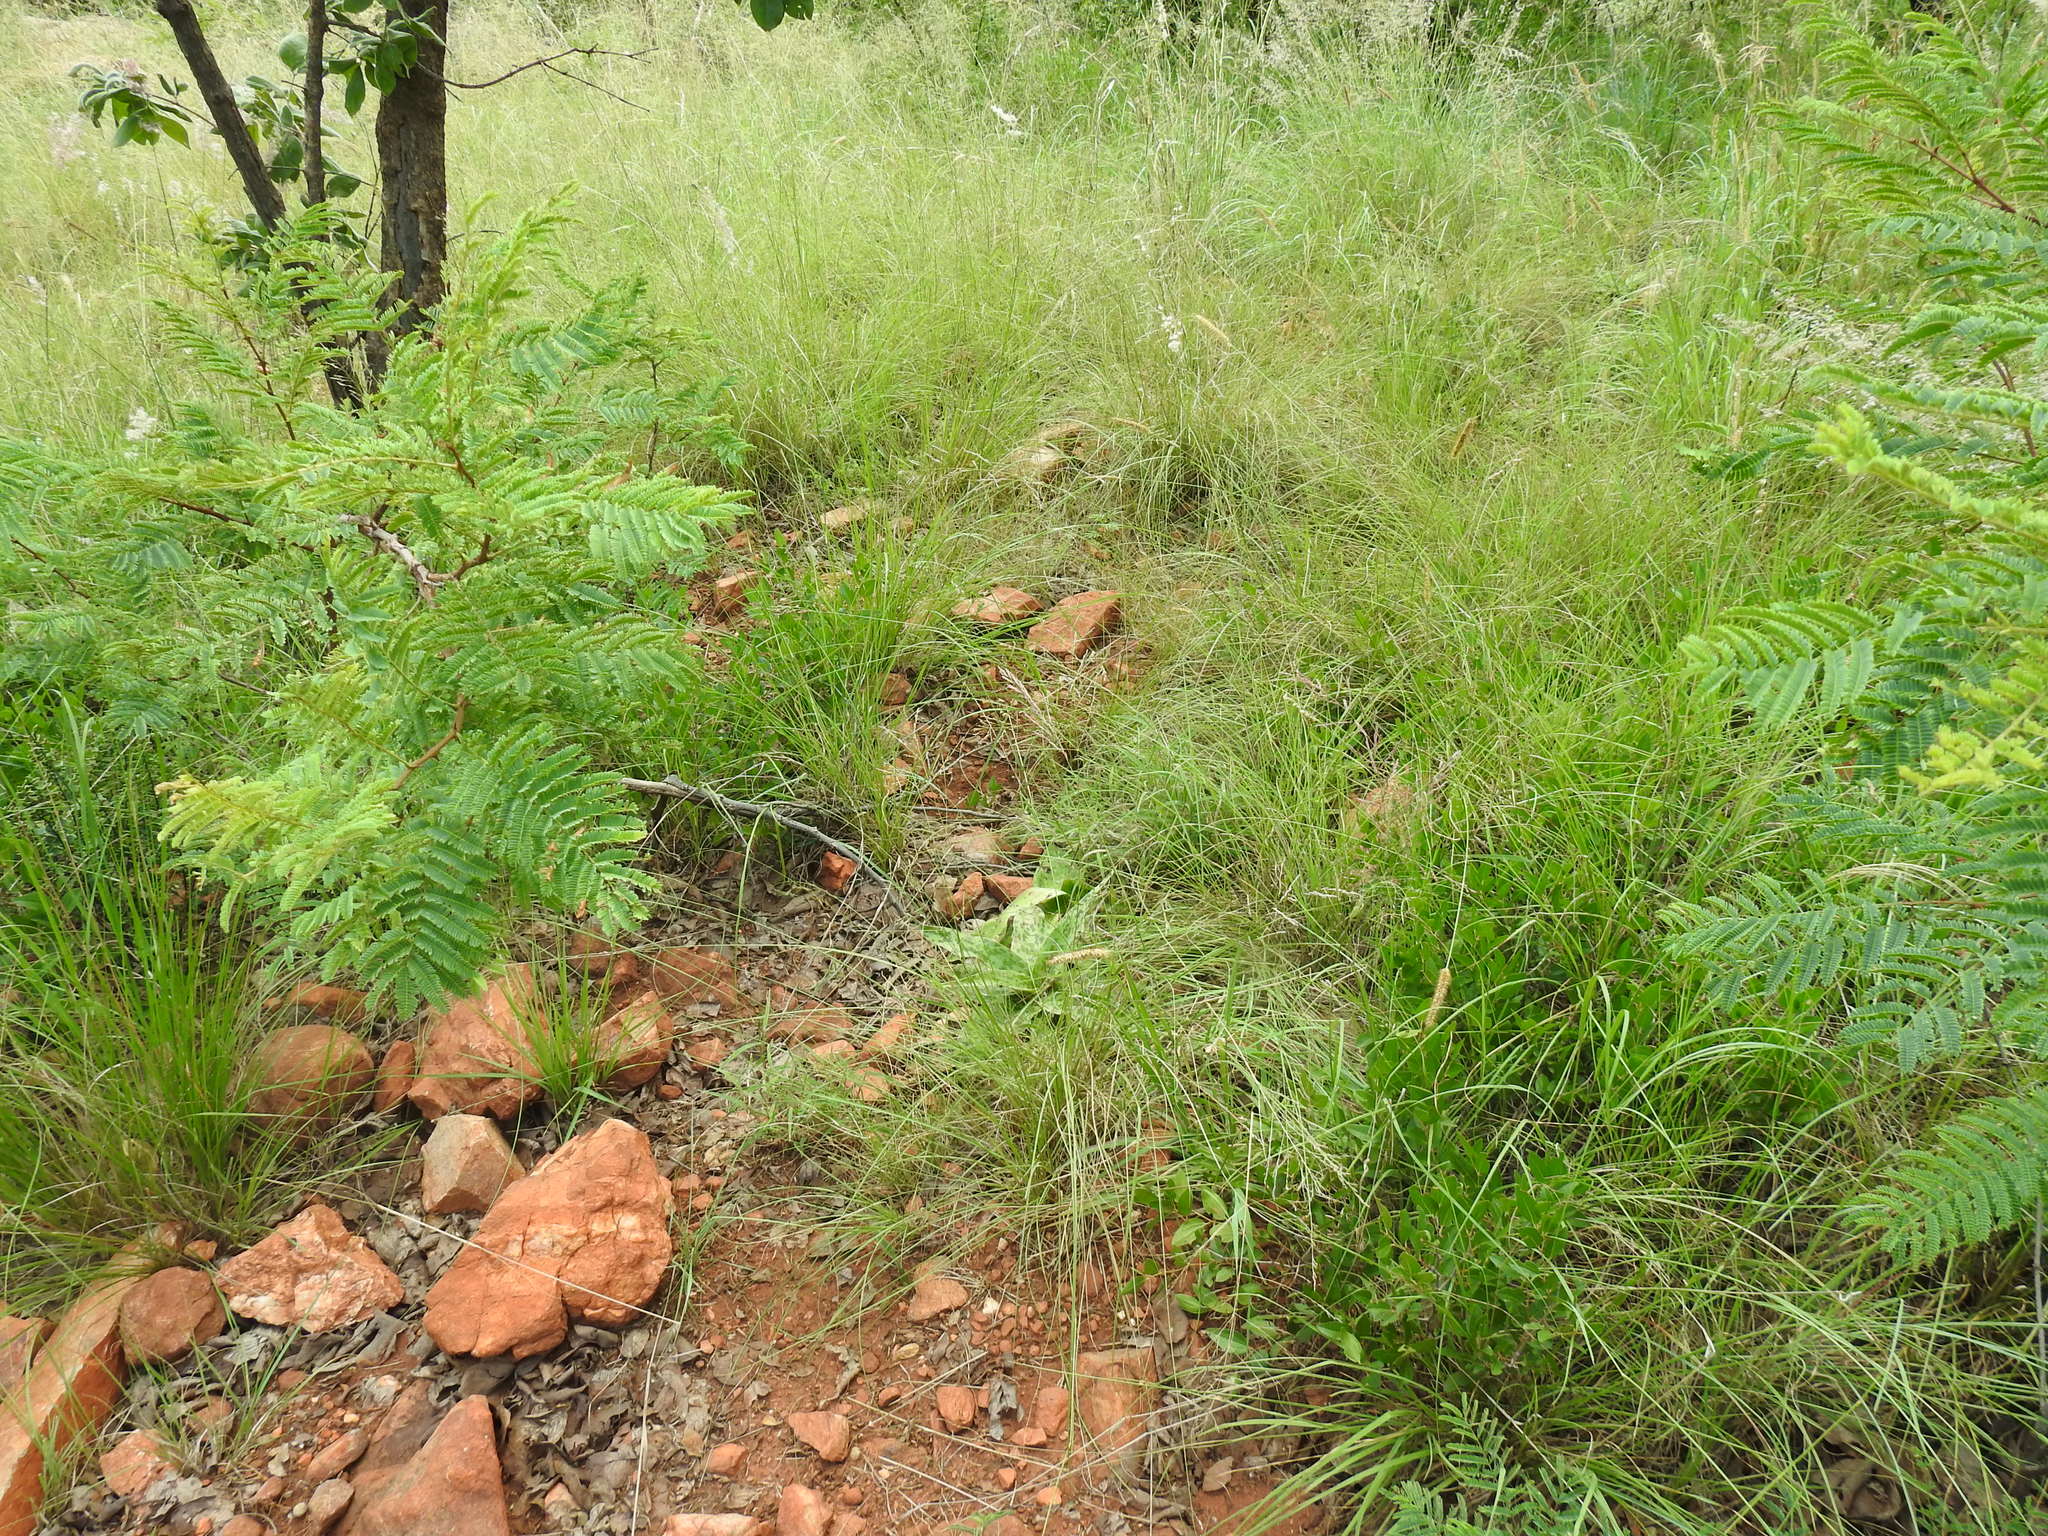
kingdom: Plantae
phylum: Tracheophyta
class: Liliopsida
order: Asparagales
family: Asparagaceae
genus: Ledebouria
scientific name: Ledebouria luteola
